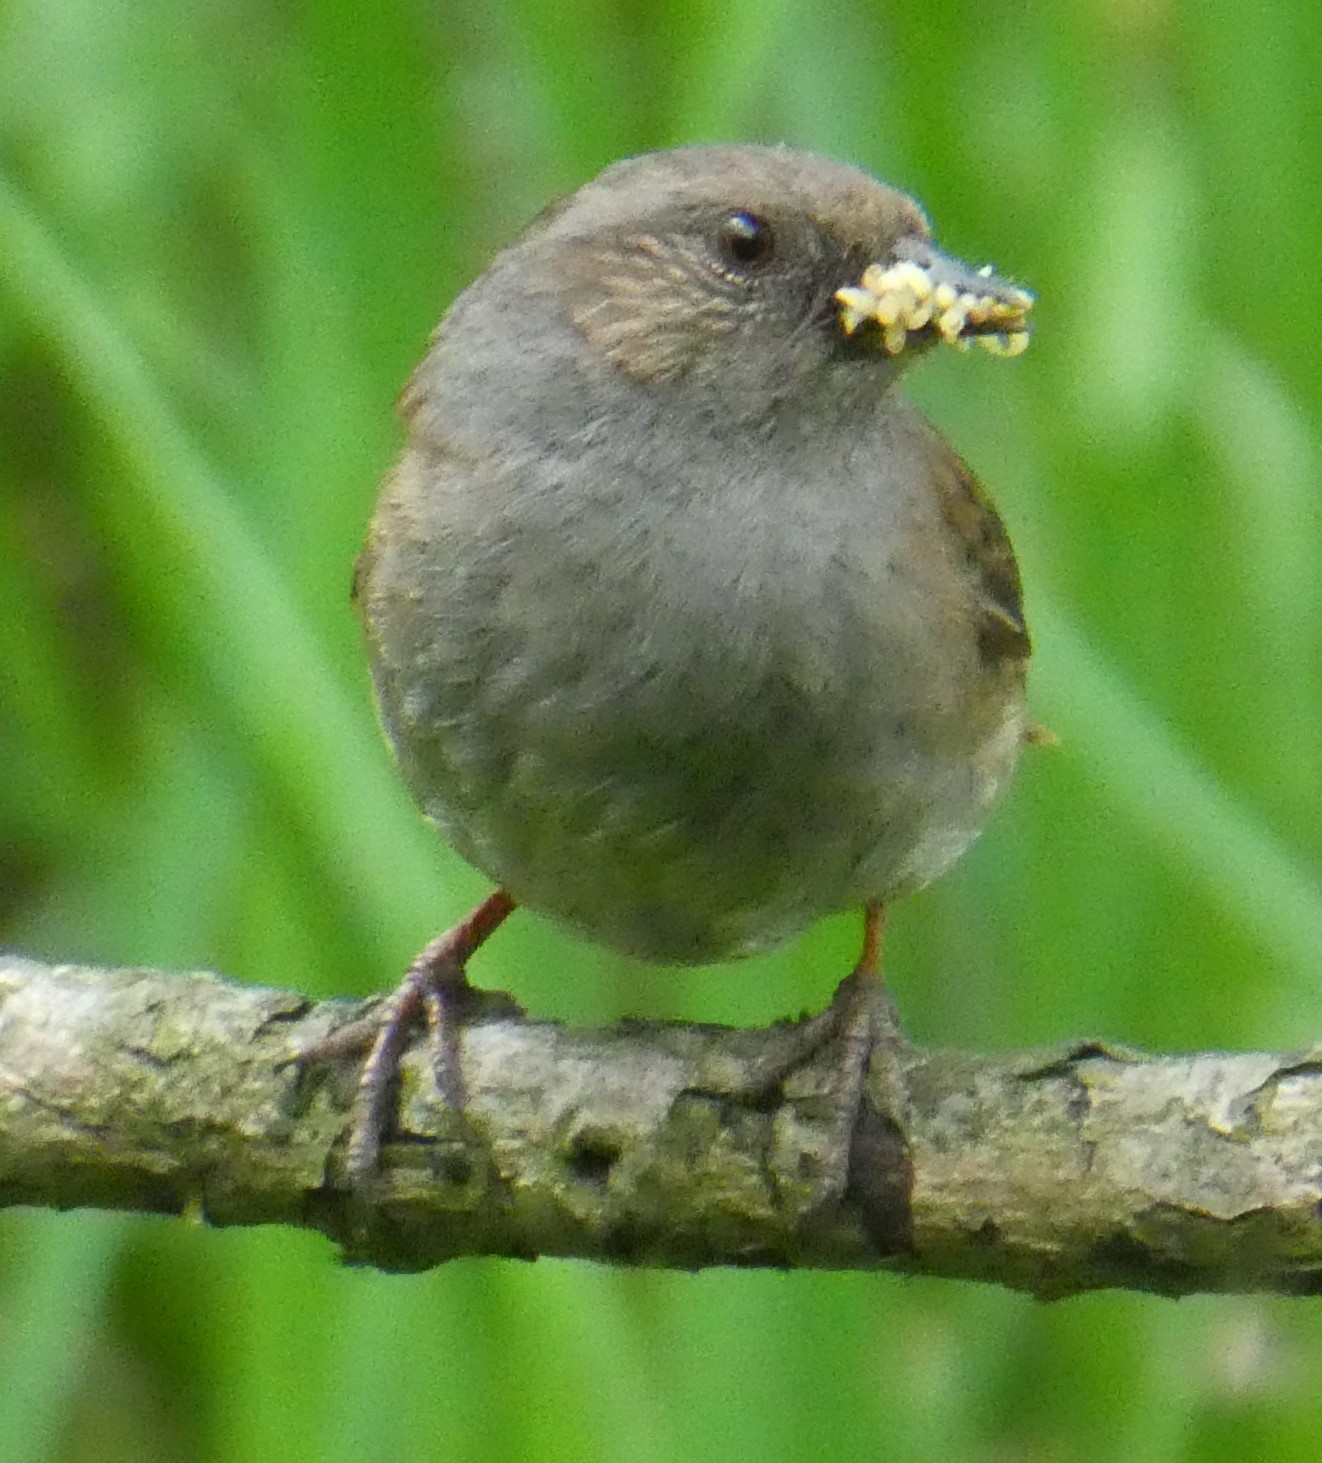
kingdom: Animalia
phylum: Chordata
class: Aves
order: Passeriformes
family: Prunellidae
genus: Prunella
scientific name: Prunella modularis
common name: Dunnock
